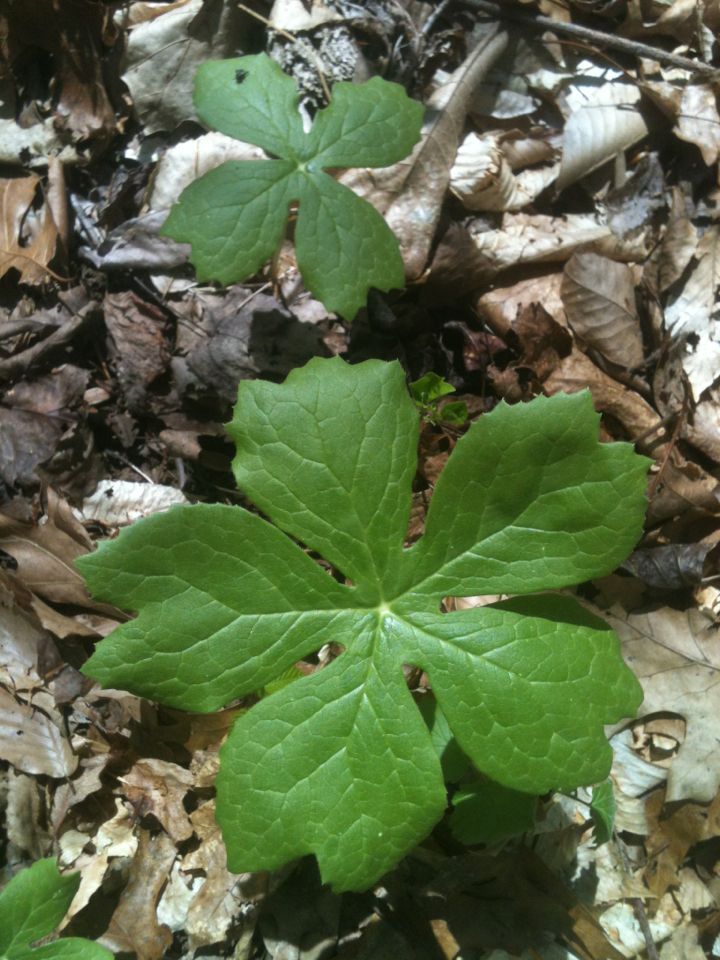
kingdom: Plantae
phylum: Tracheophyta
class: Magnoliopsida
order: Ranunculales
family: Berberidaceae
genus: Podophyllum
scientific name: Podophyllum peltatum
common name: Wild mandrake
